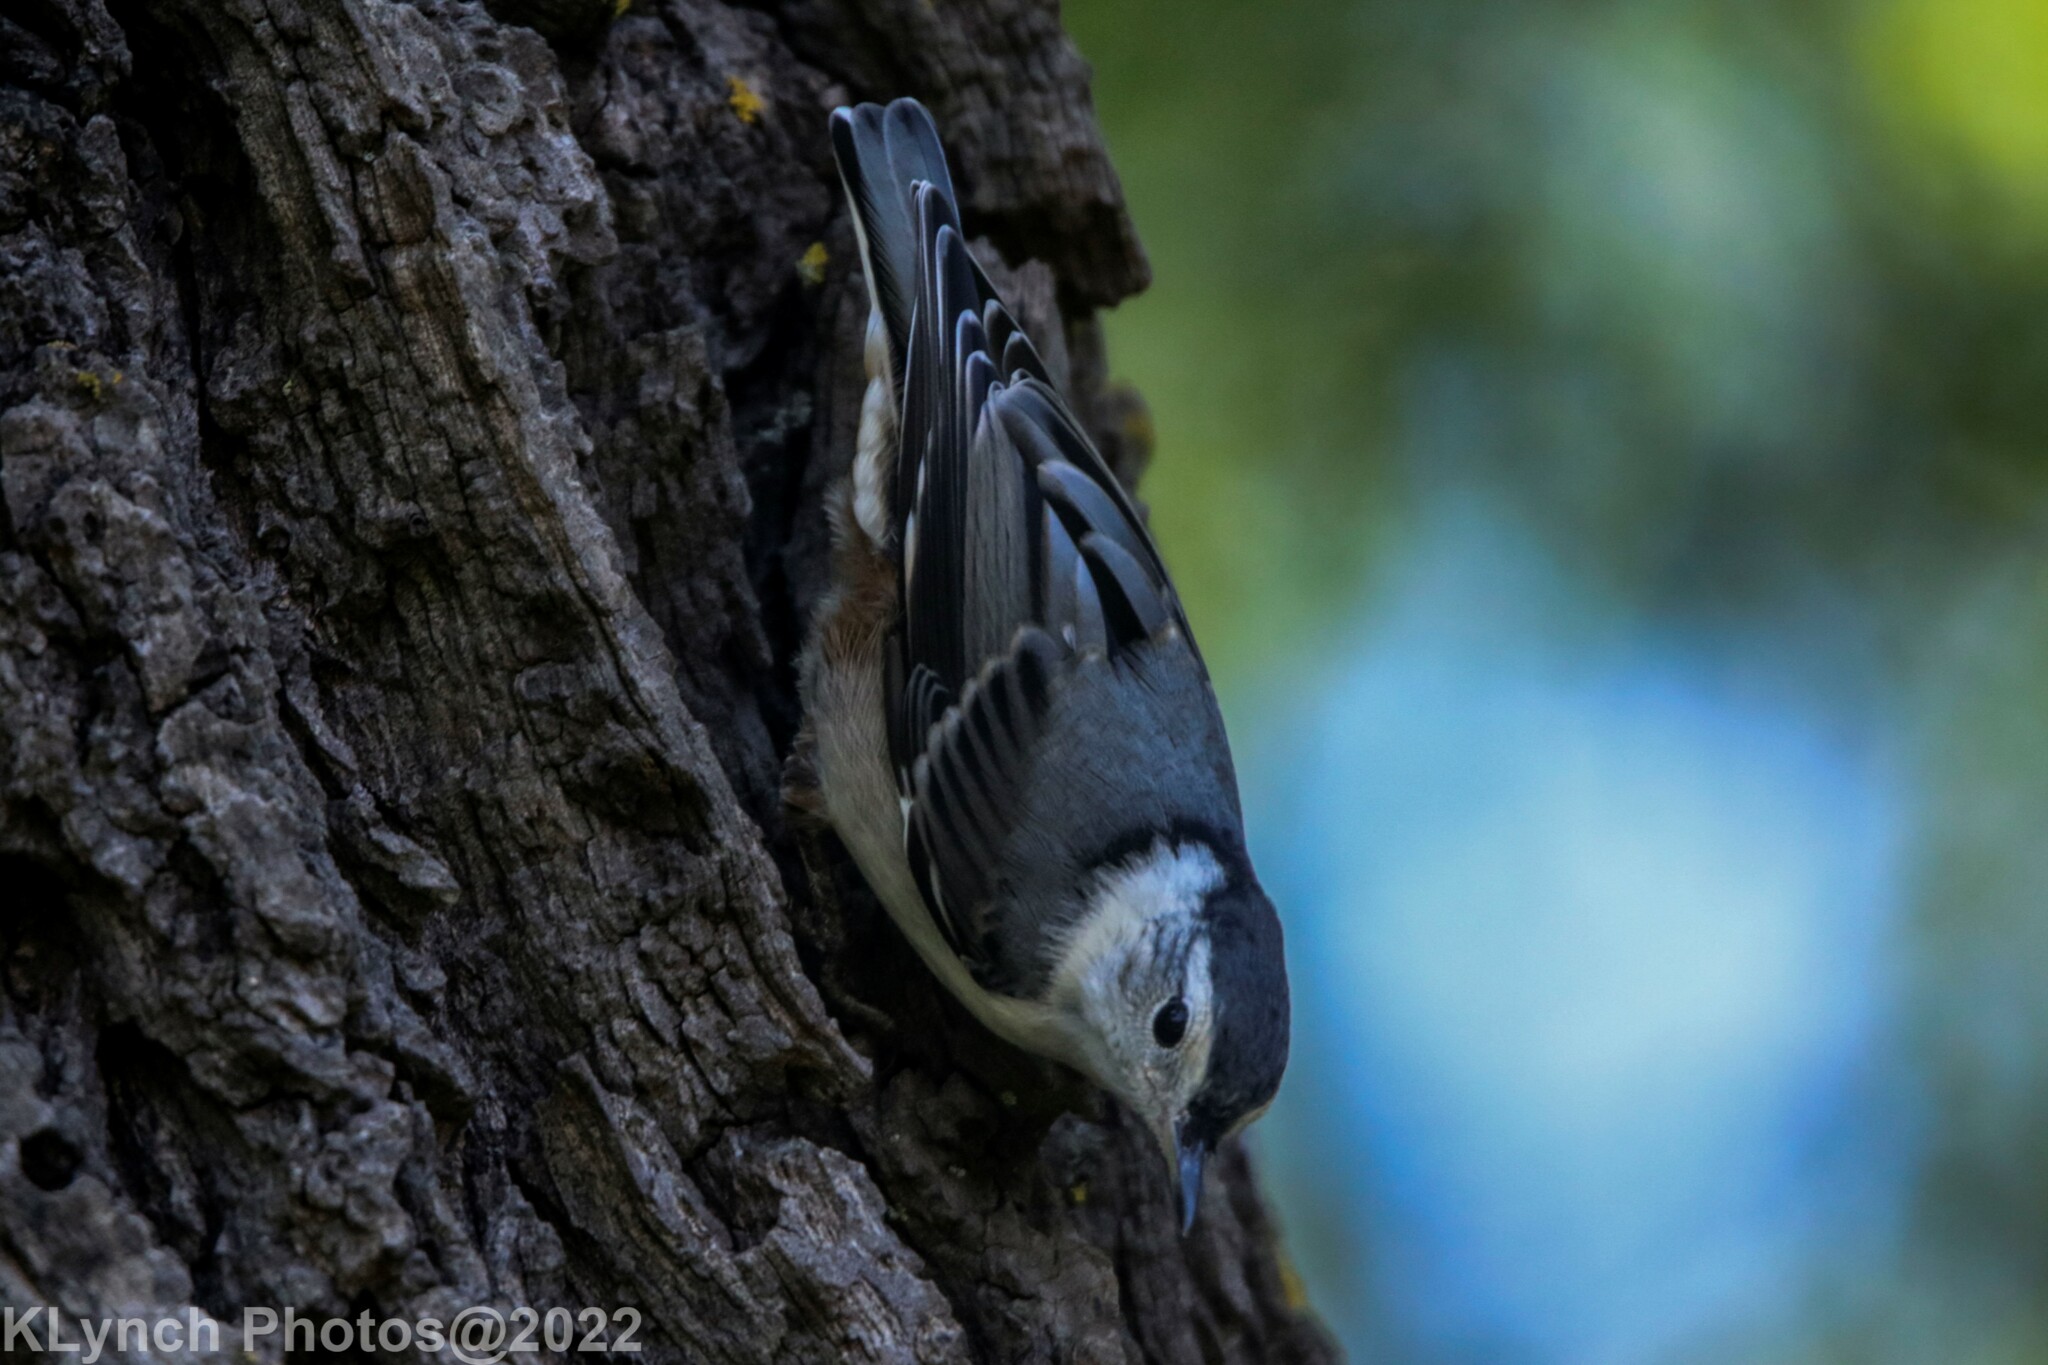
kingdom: Animalia
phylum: Chordata
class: Aves
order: Passeriformes
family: Sittidae
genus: Sitta
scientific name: Sitta carolinensis
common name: White-breasted nuthatch
